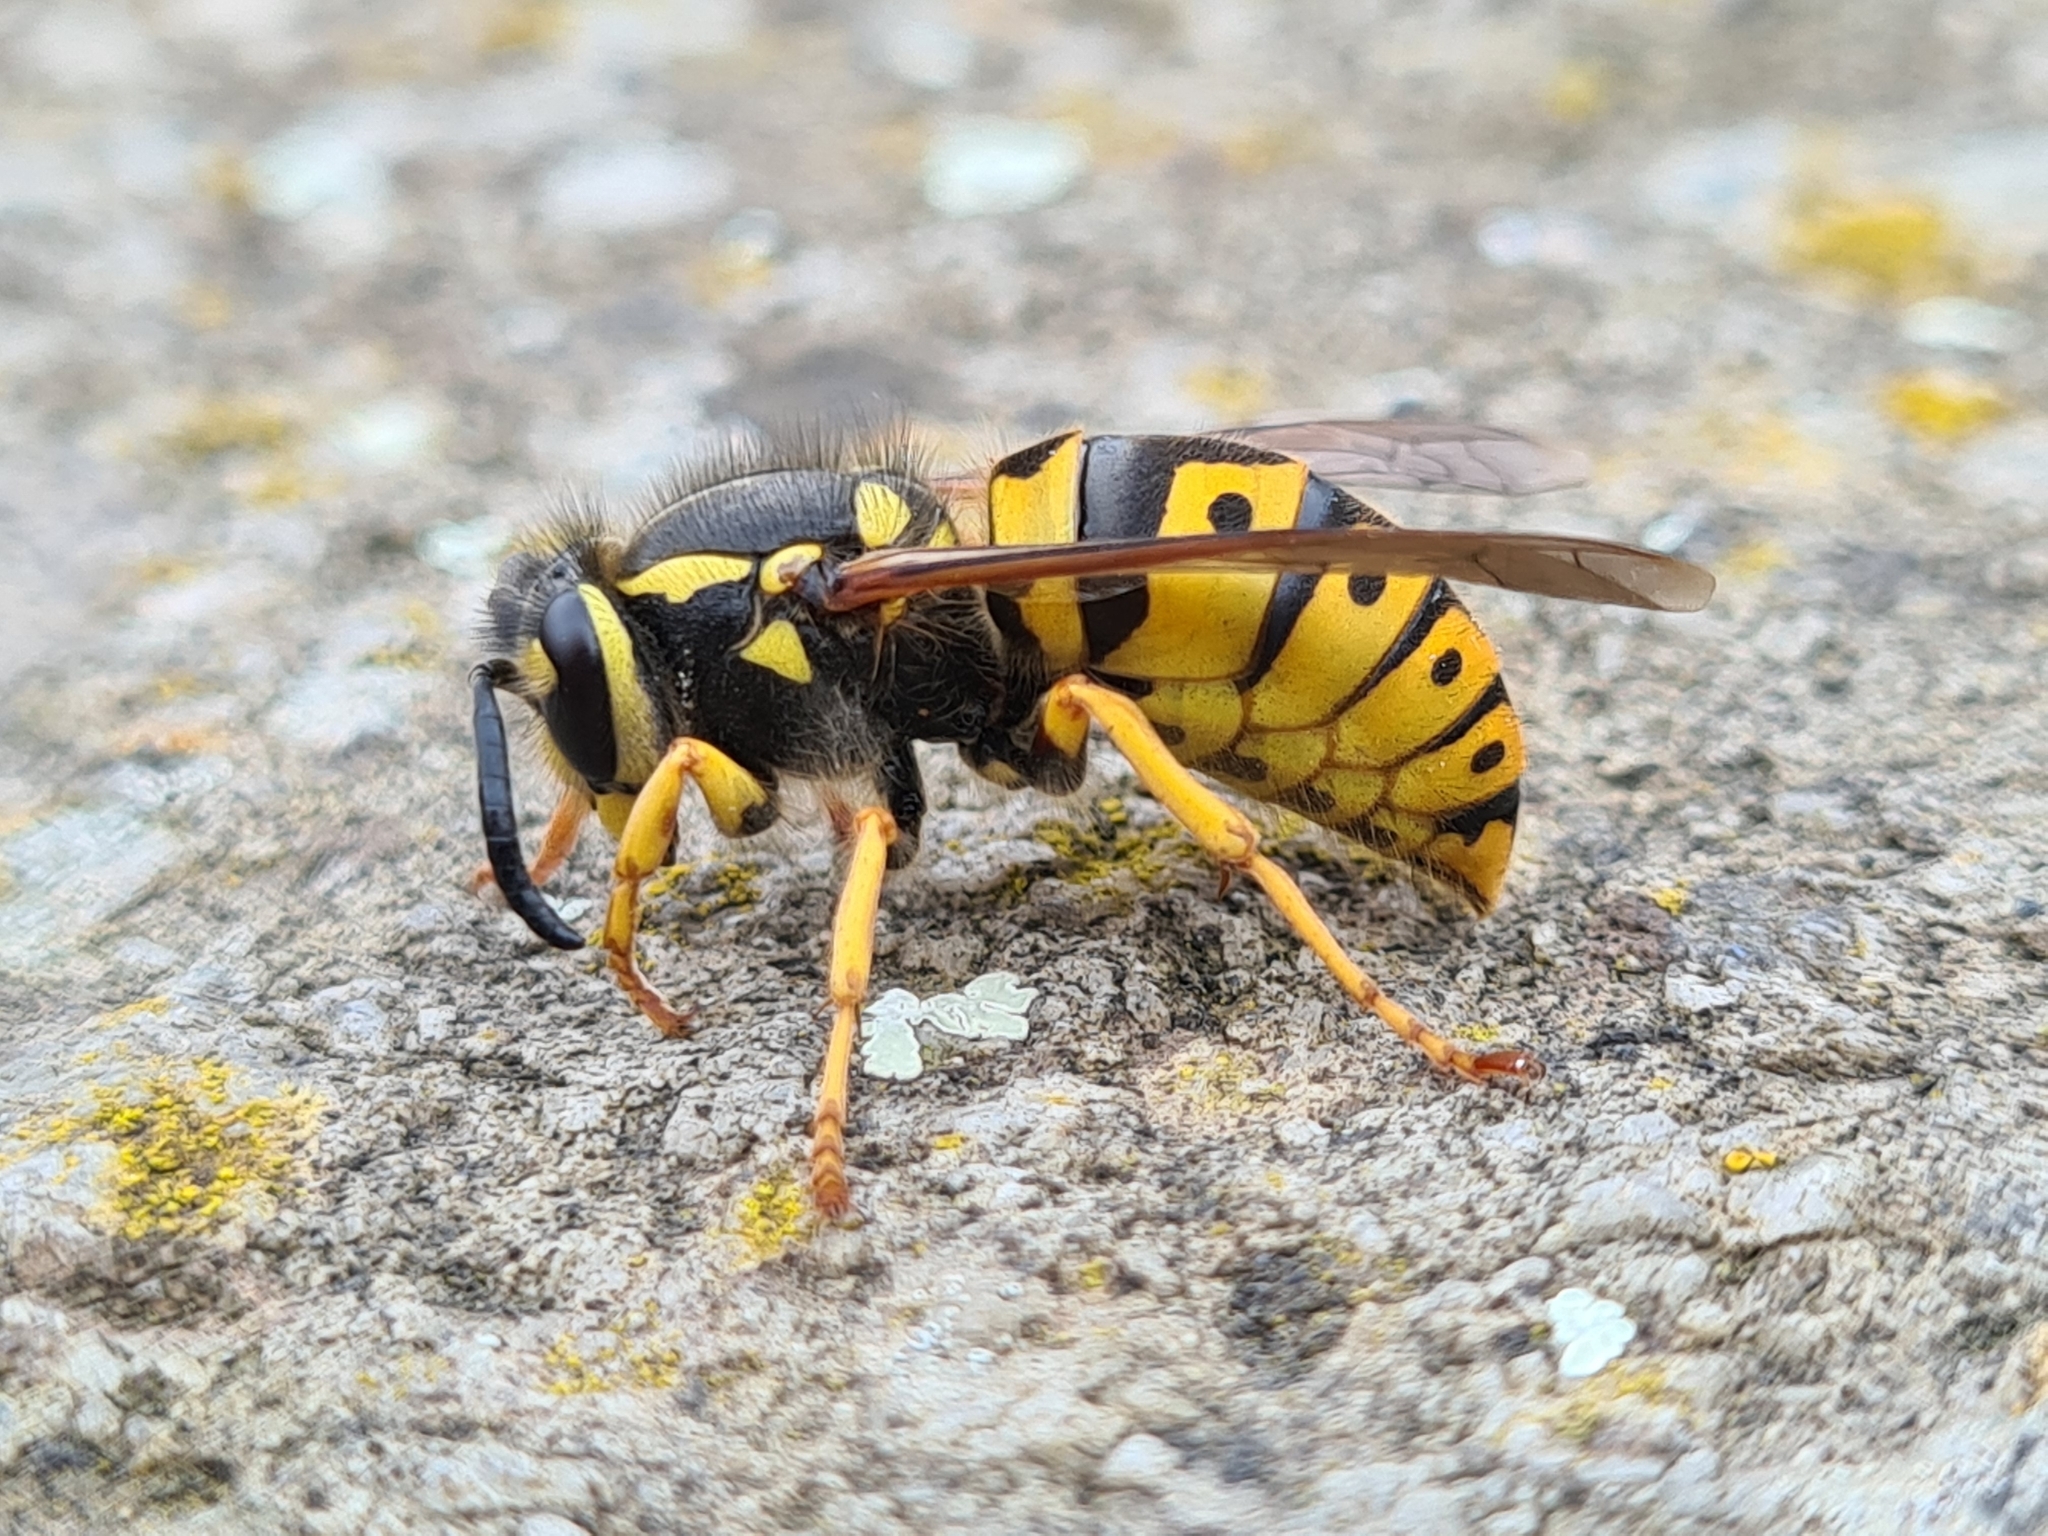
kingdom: Animalia
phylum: Arthropoda
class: Insecta
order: Hymenoptera
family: Vespidae
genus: Vespula
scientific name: Vespula germanica
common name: German wasp
